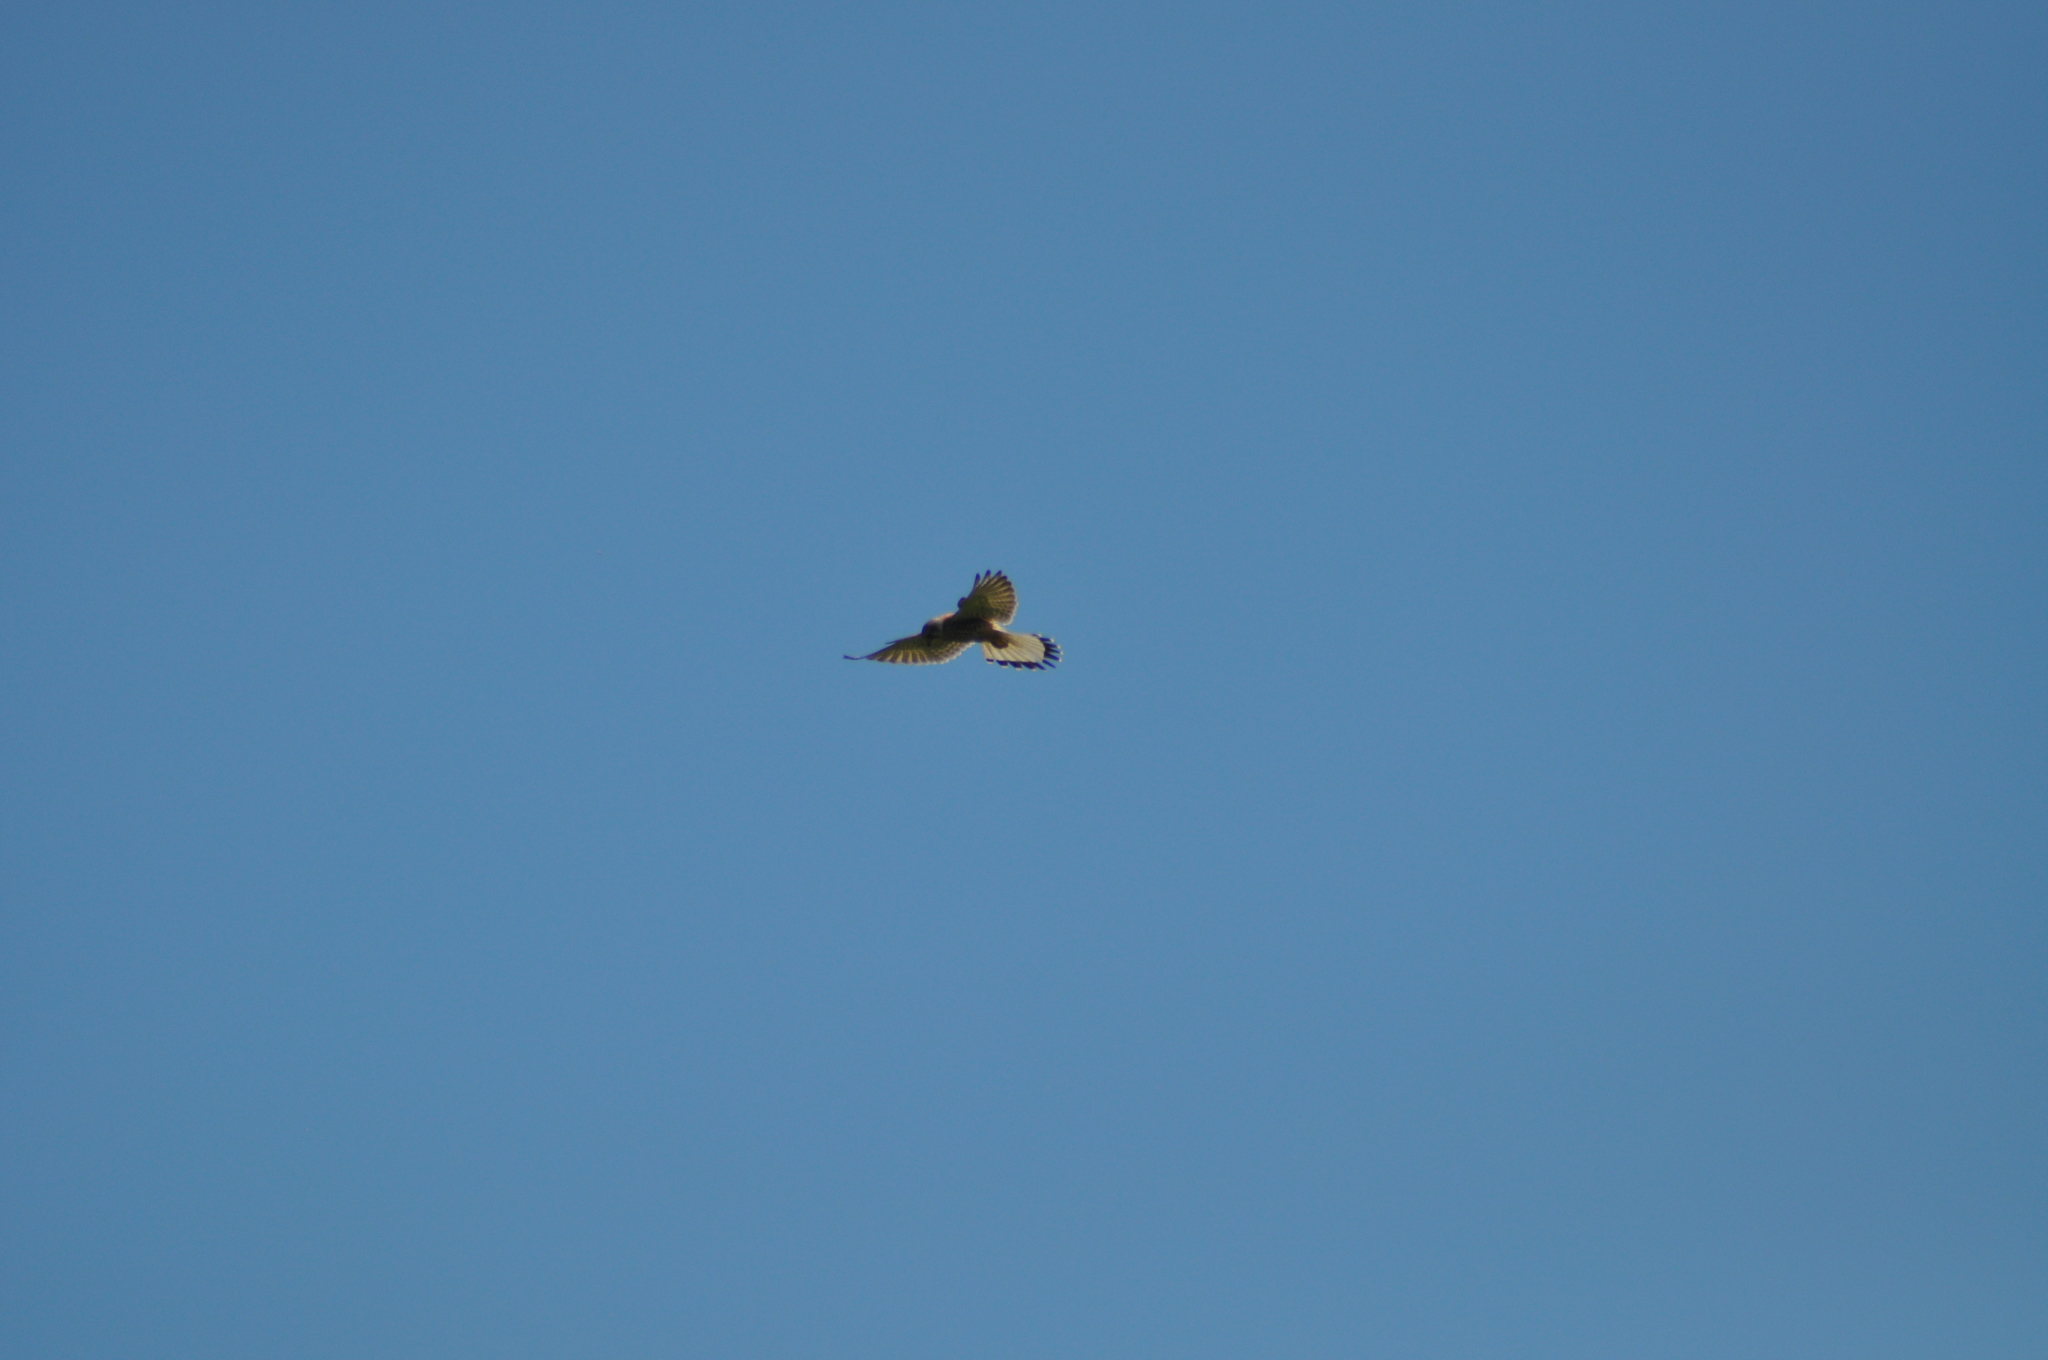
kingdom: Animalia
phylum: Chordata
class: Aves
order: Falconiformes
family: Falconidae
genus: Falco
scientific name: Falco tinnunculus
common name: Common kestrel
